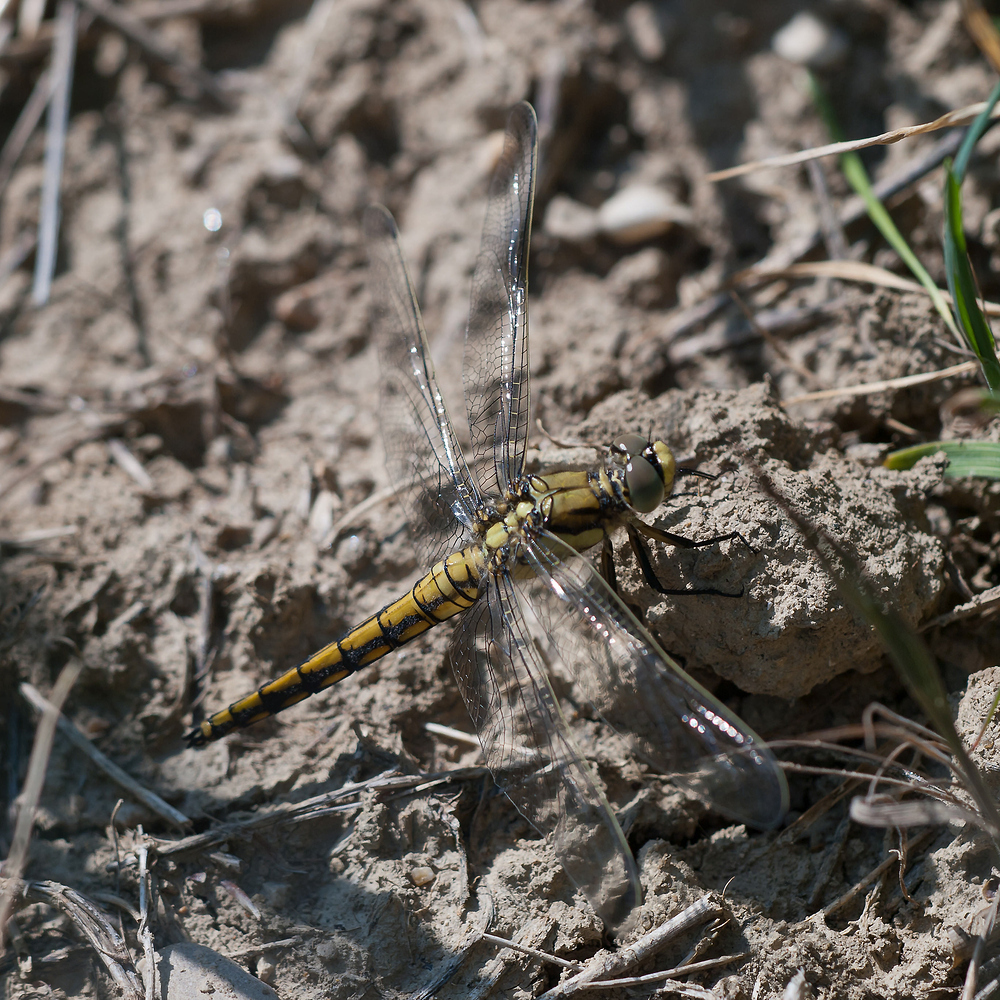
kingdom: Animalia
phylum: Arthropoda
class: Insecta
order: Odonata
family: Libellulidae
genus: Orthetrum
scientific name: Orthetrum cancellatum
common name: Black-tailed skimmer
